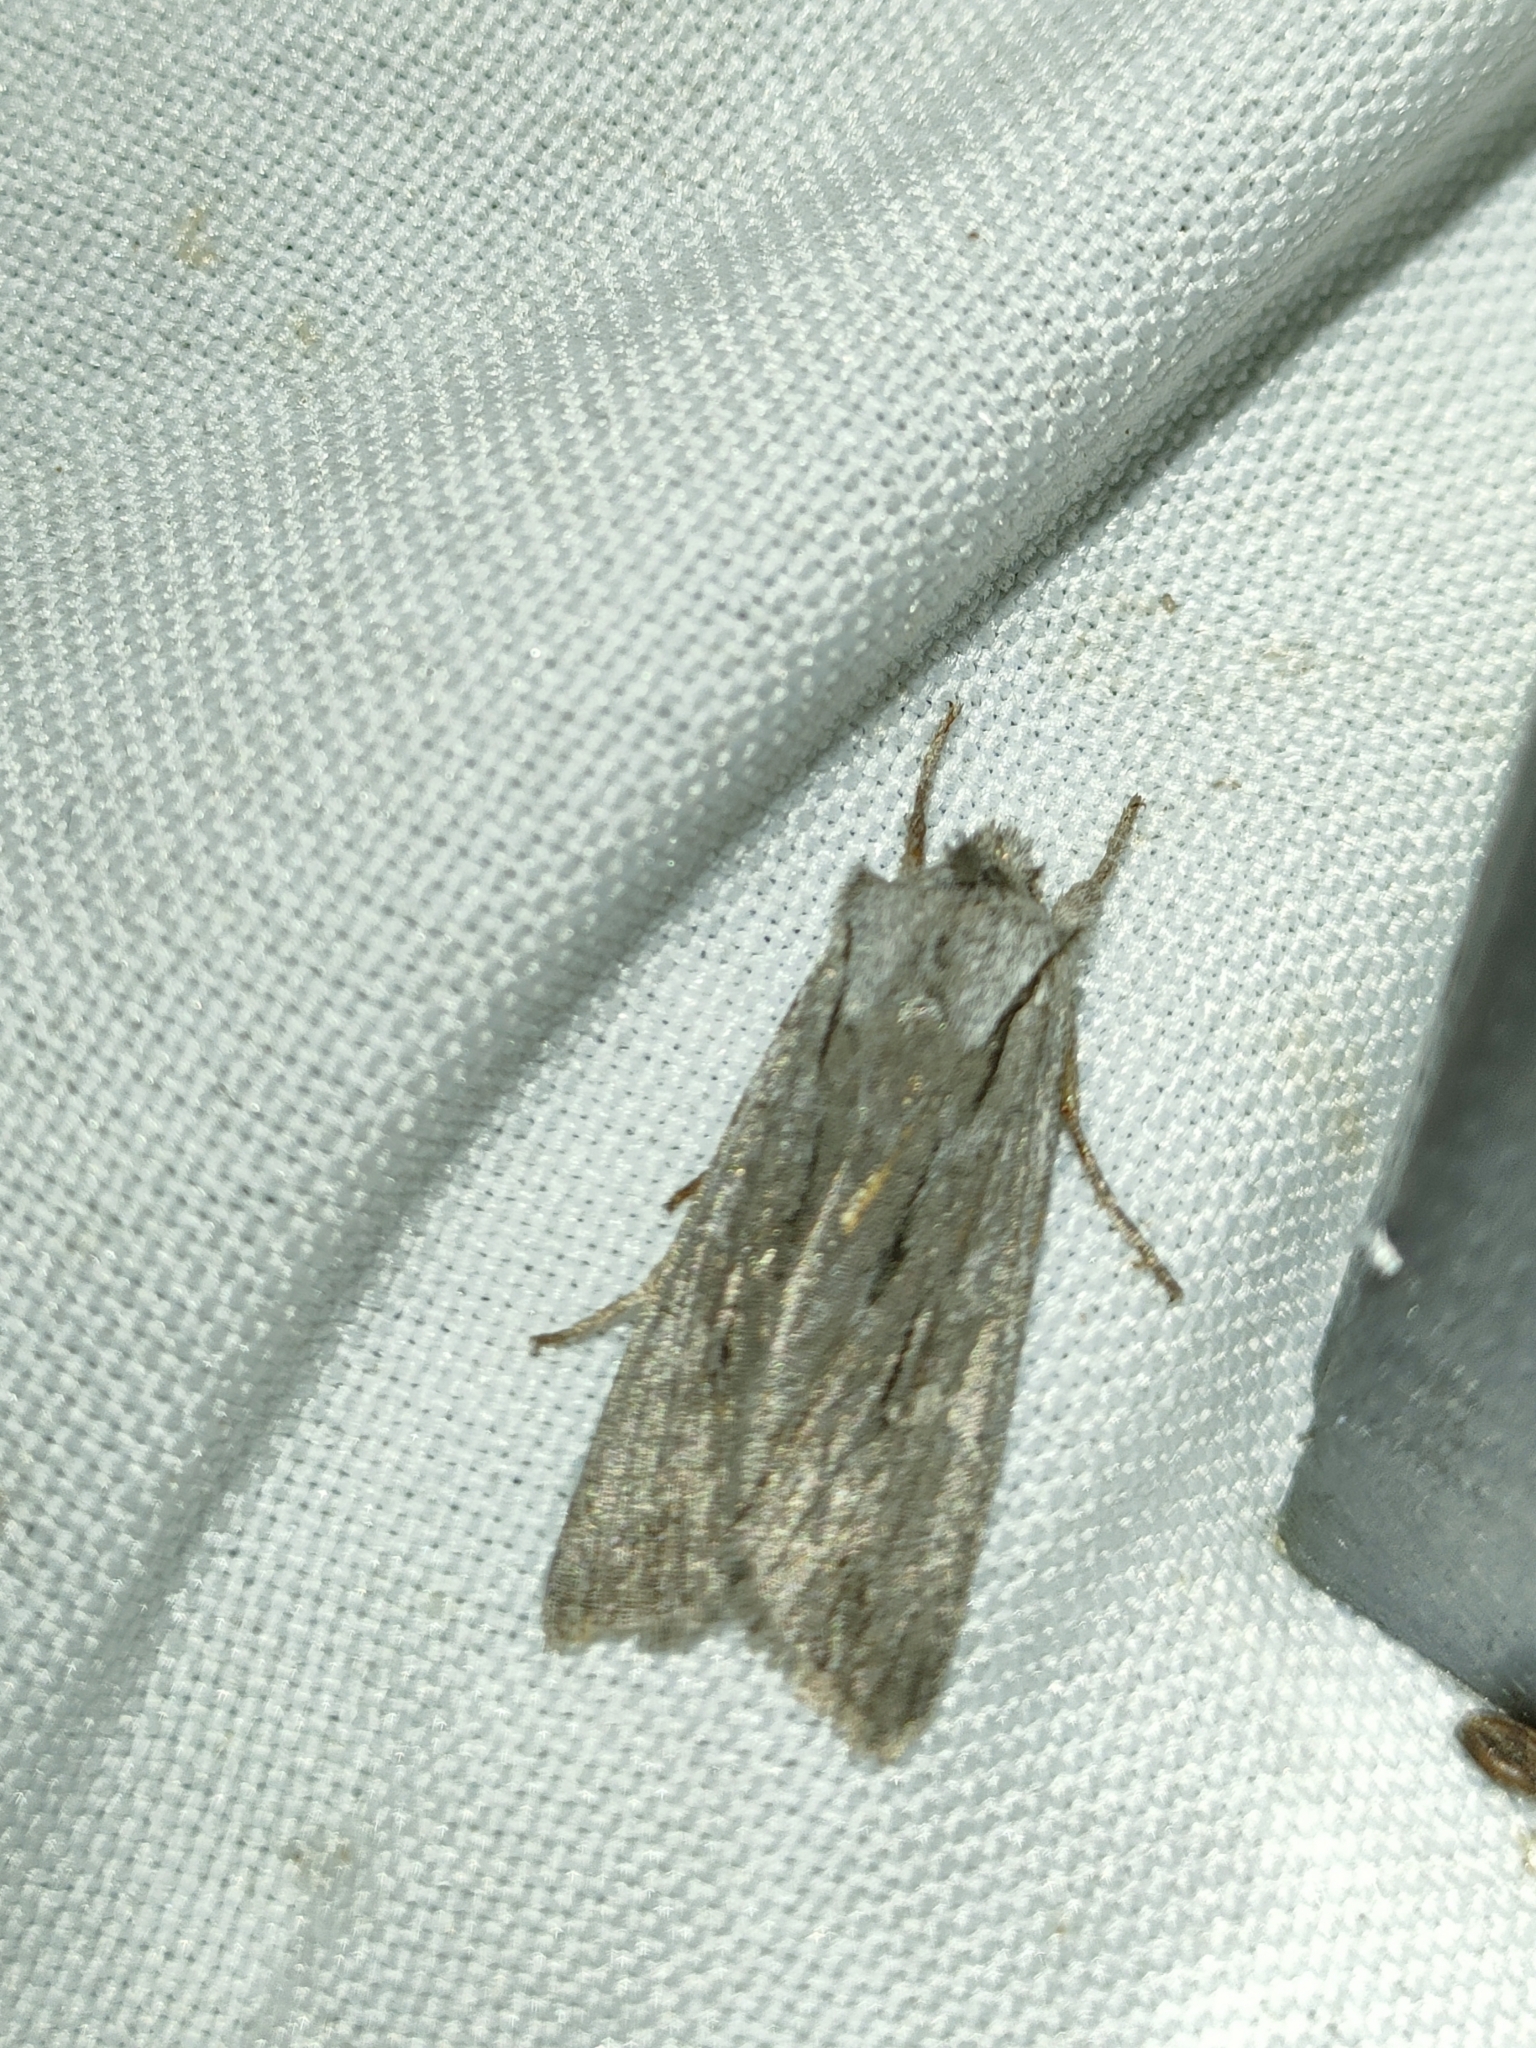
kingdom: Animalia
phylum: Arthropoda
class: Insecta
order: Lepidoptera
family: Noctuidae
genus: Lithophane
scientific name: Lithophane leautieri
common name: Blair's shoulder-knot
